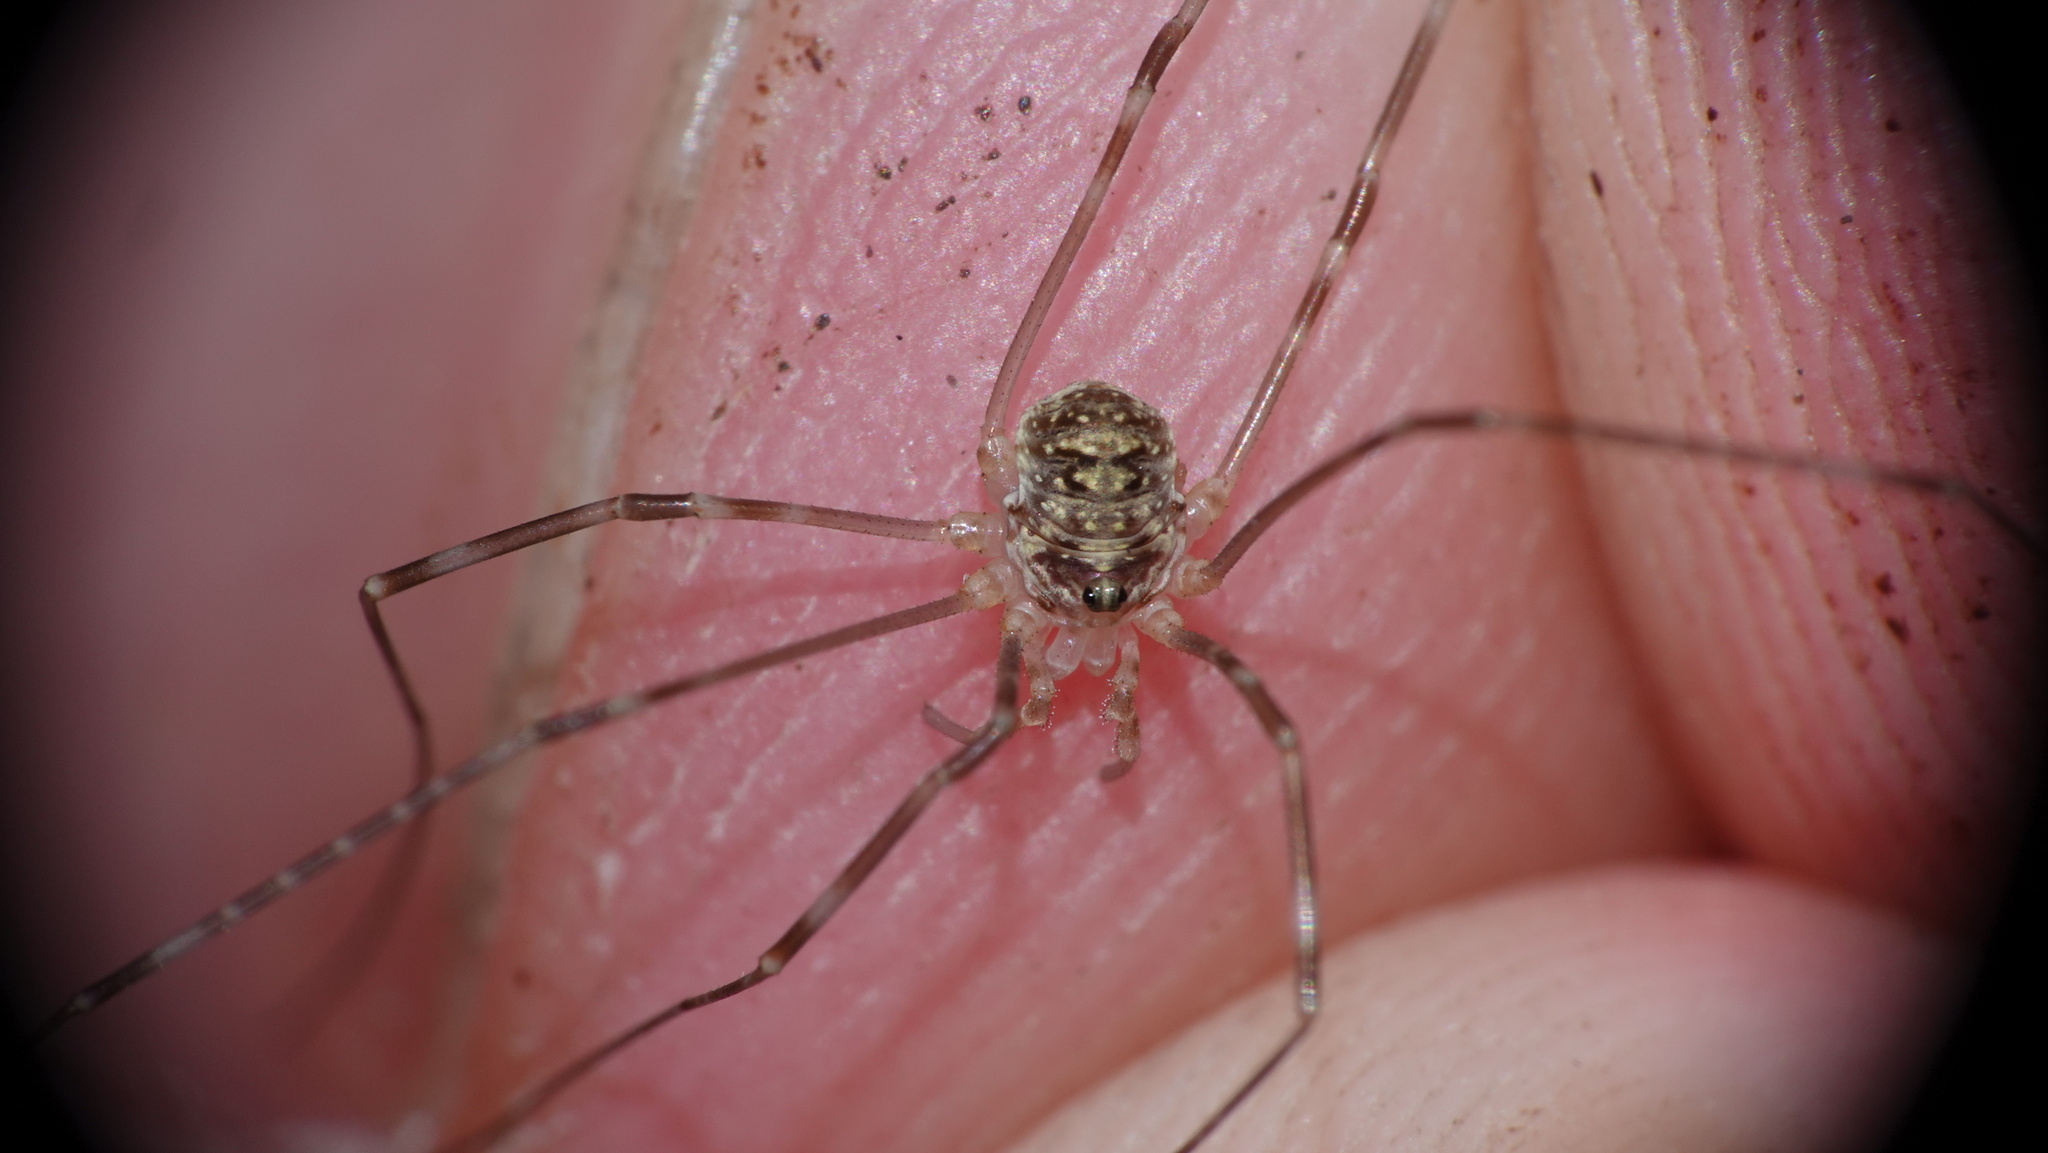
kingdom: Animalia
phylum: Arthropoda
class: Arachnida
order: Opiliones
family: Phalangiidae
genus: Amilenus
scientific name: Amilenus aurantiacus
